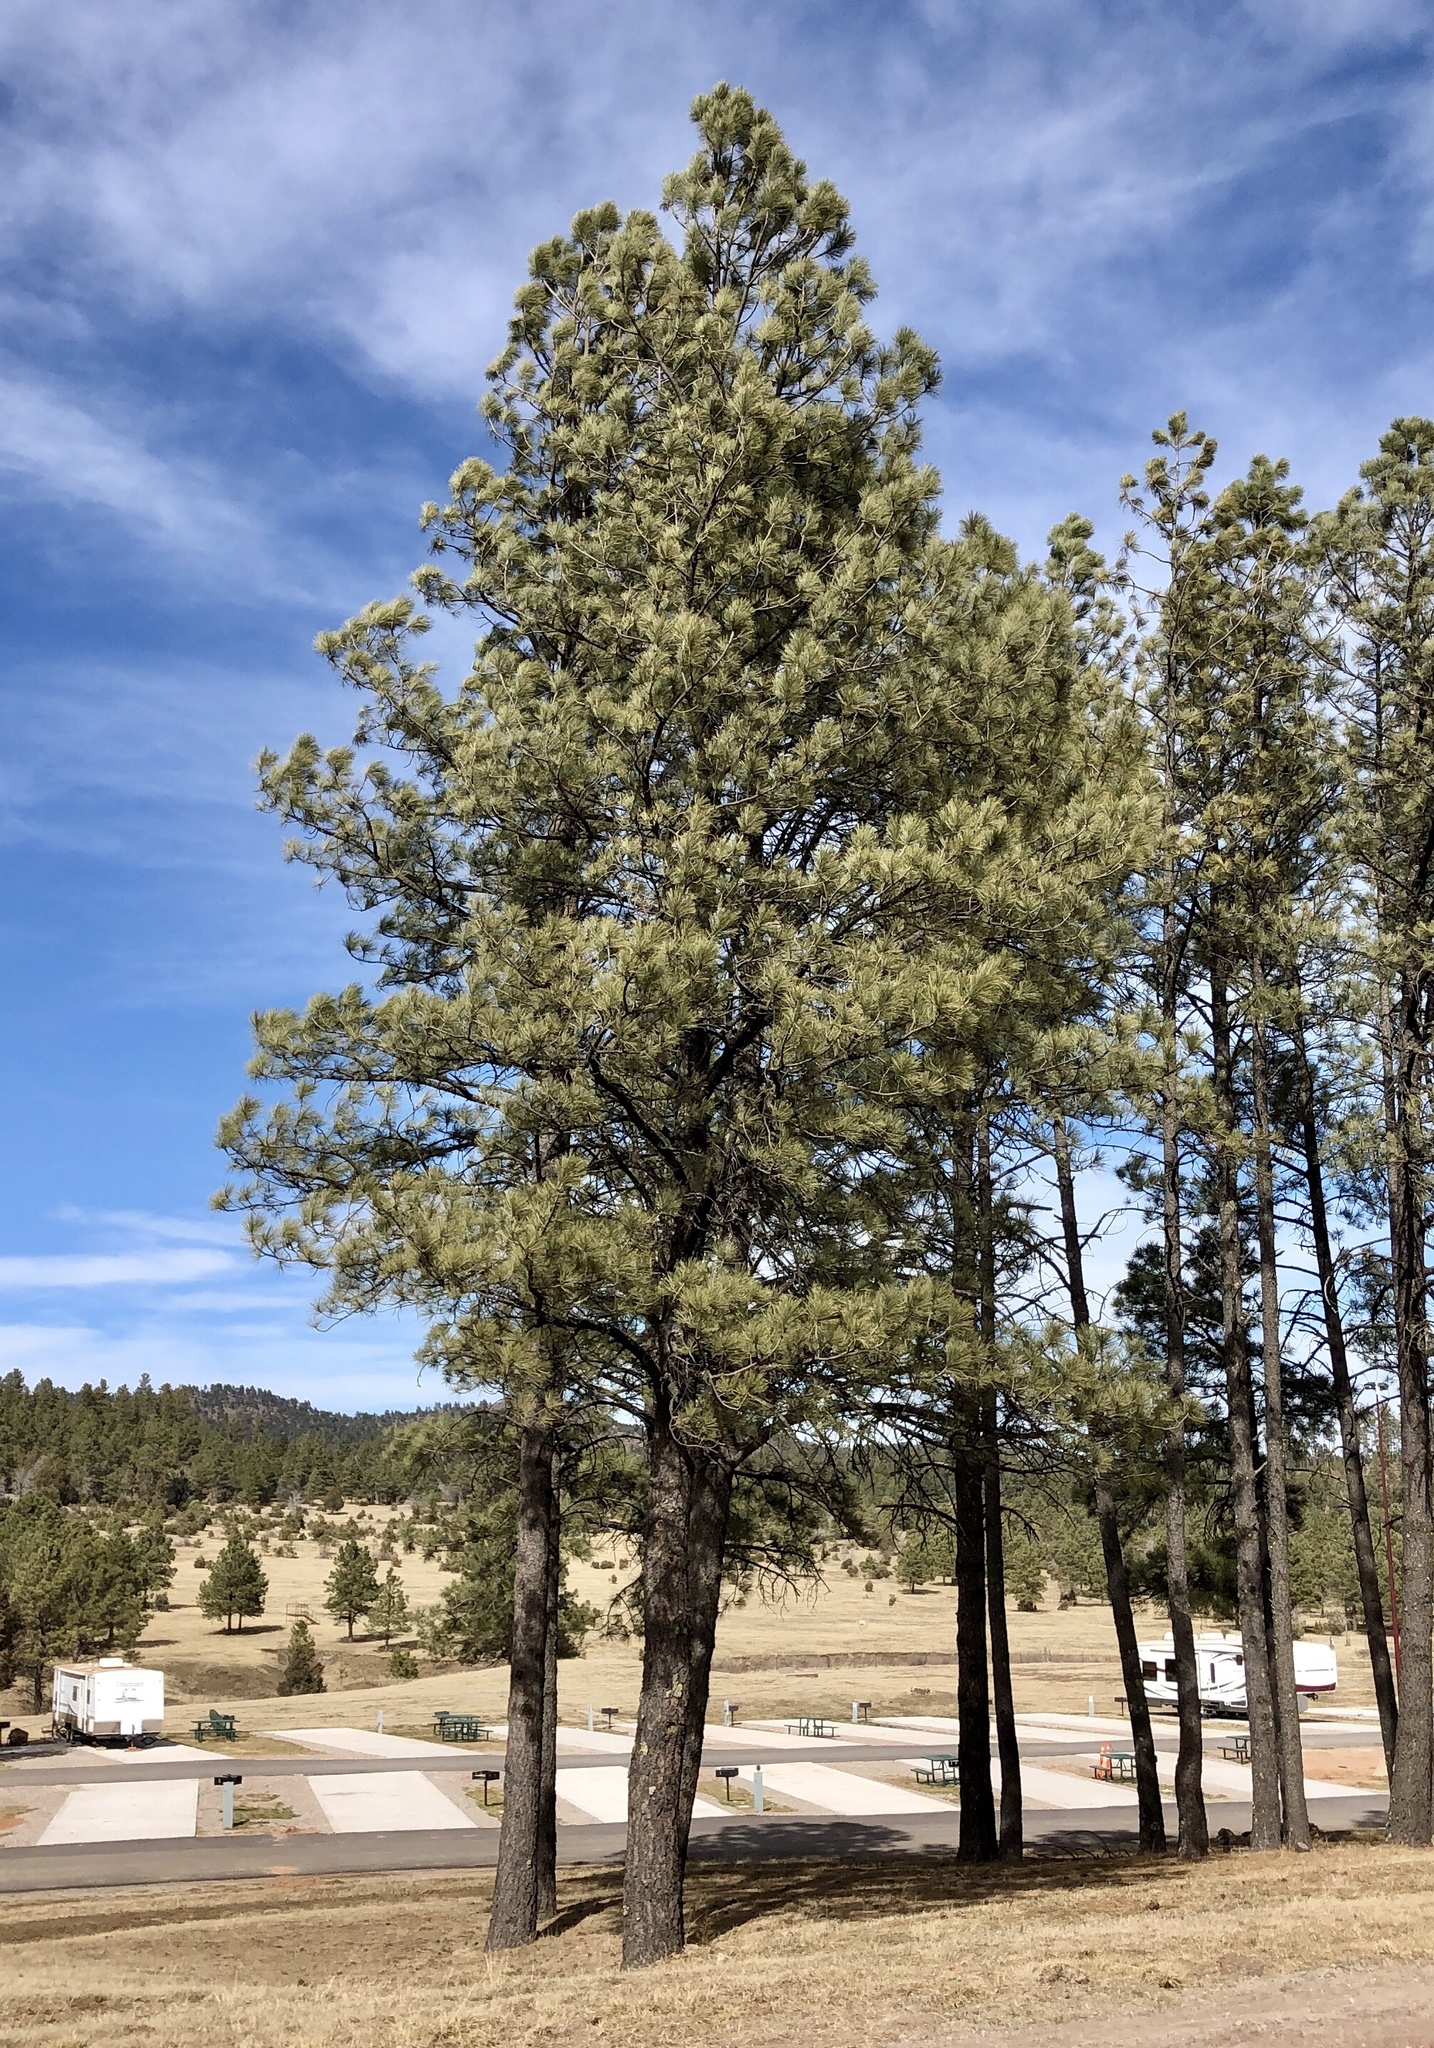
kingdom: Plantae
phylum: Tracheophyta
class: Pinopsida
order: Pinales
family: Pinaceae
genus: Pinus
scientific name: Pinus ponderosa
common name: Western yellow-pine
